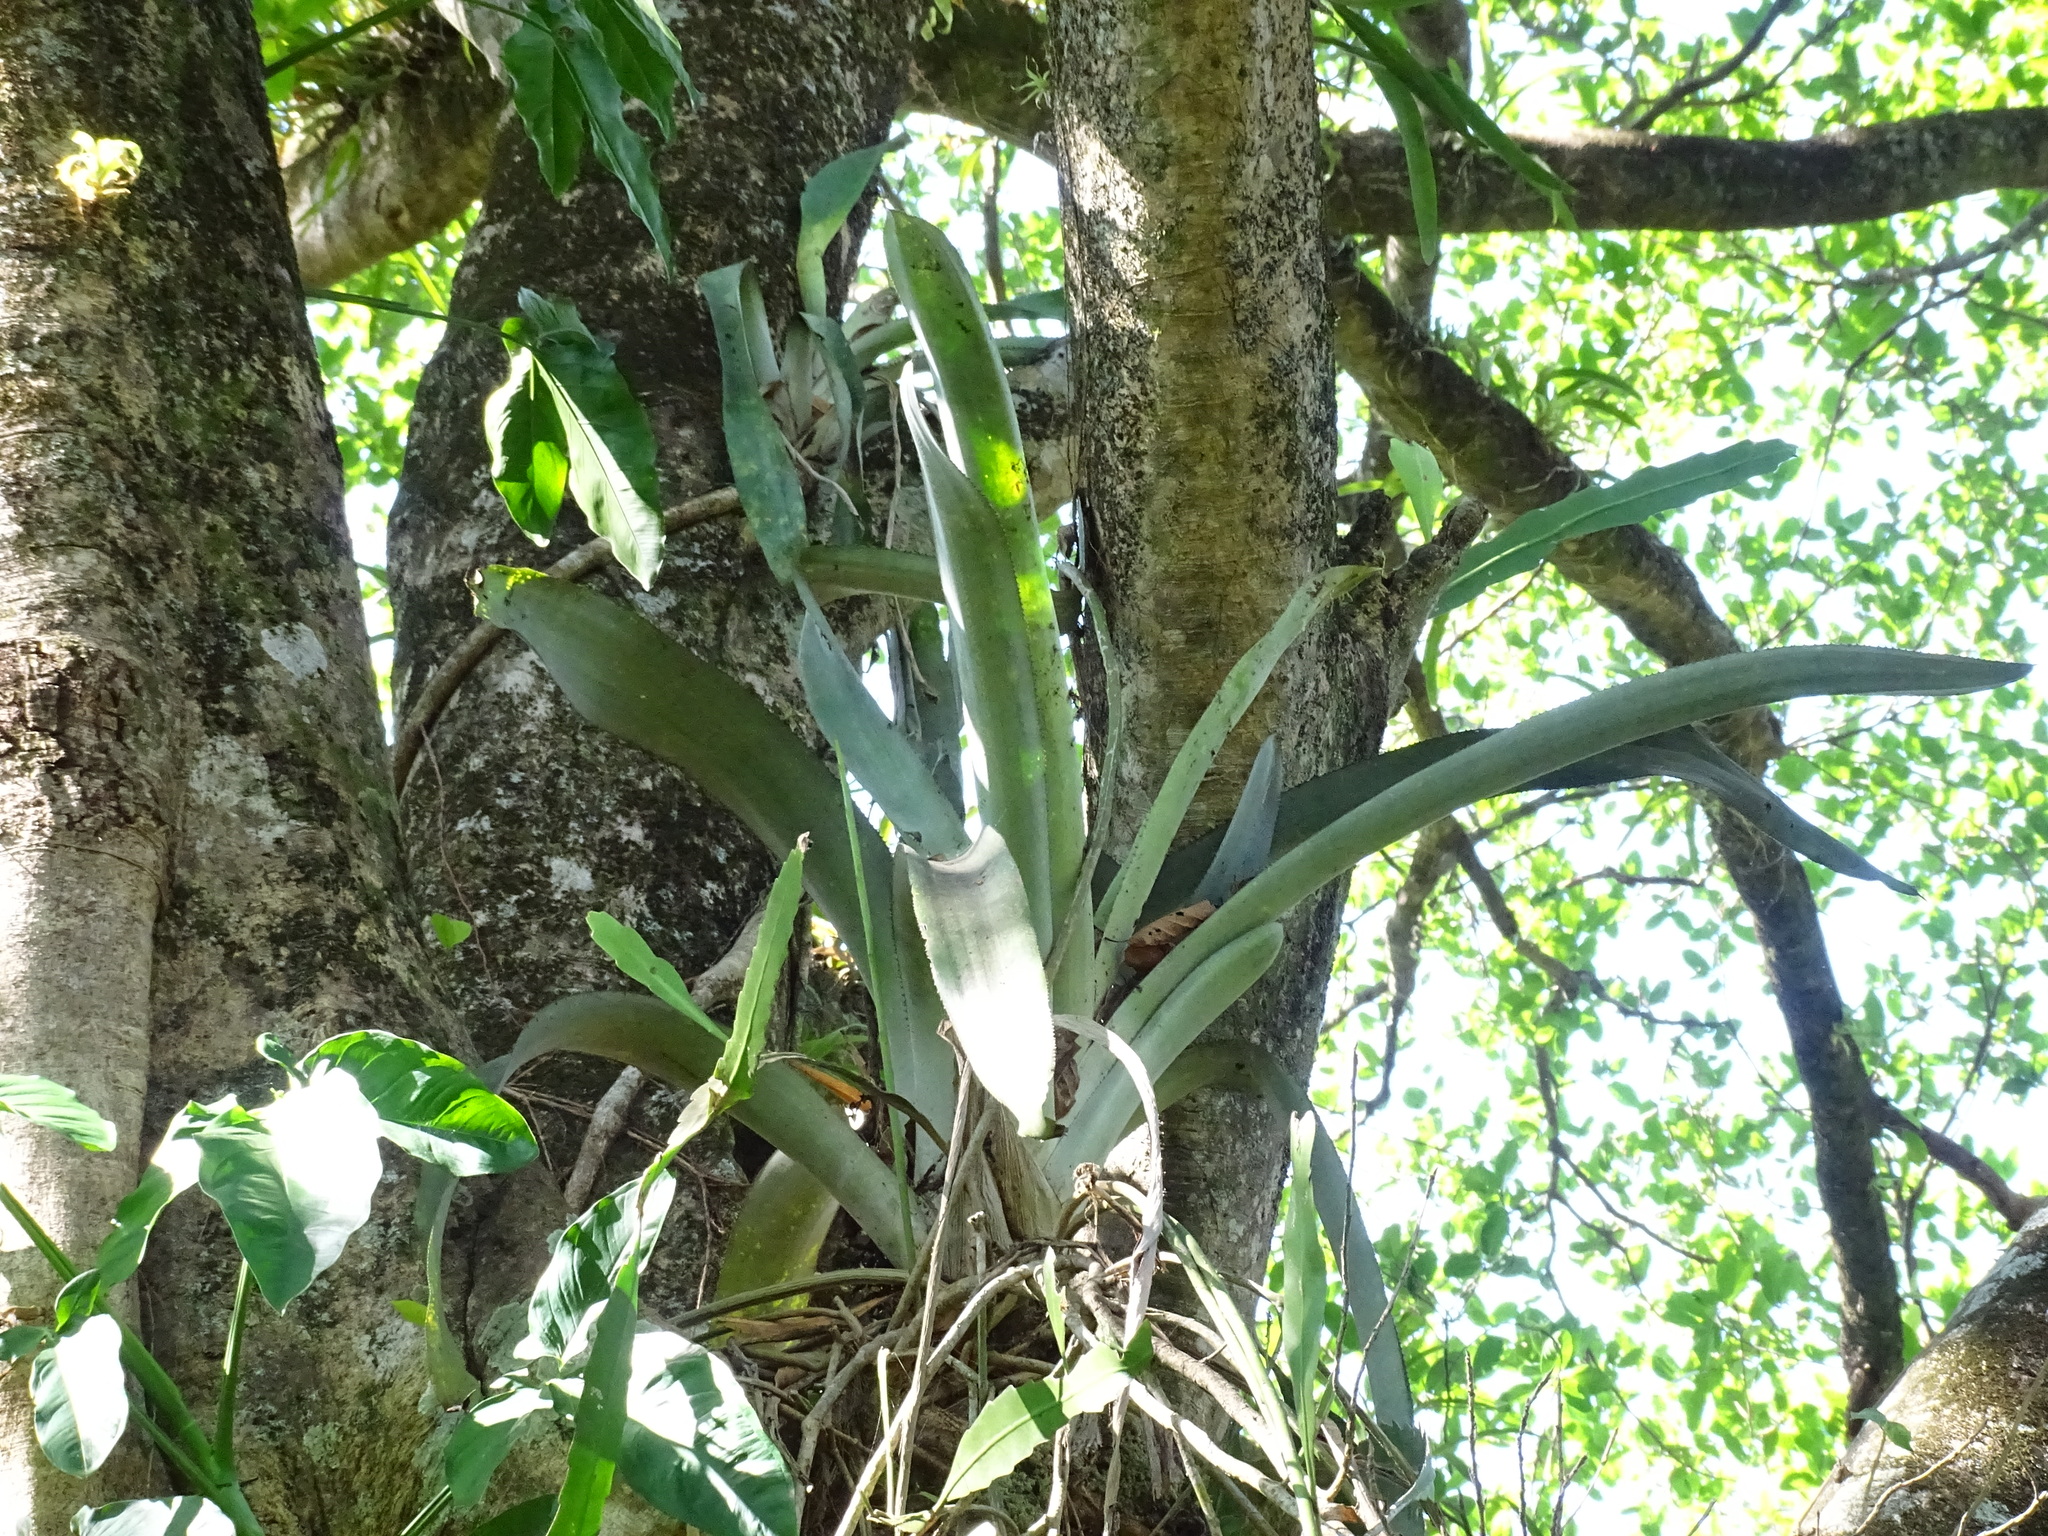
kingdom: Plantae
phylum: Tracheophyta
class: Liliopsida
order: Poales
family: Bromeliaceae
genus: Aechmea
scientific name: Aechmea matudae
